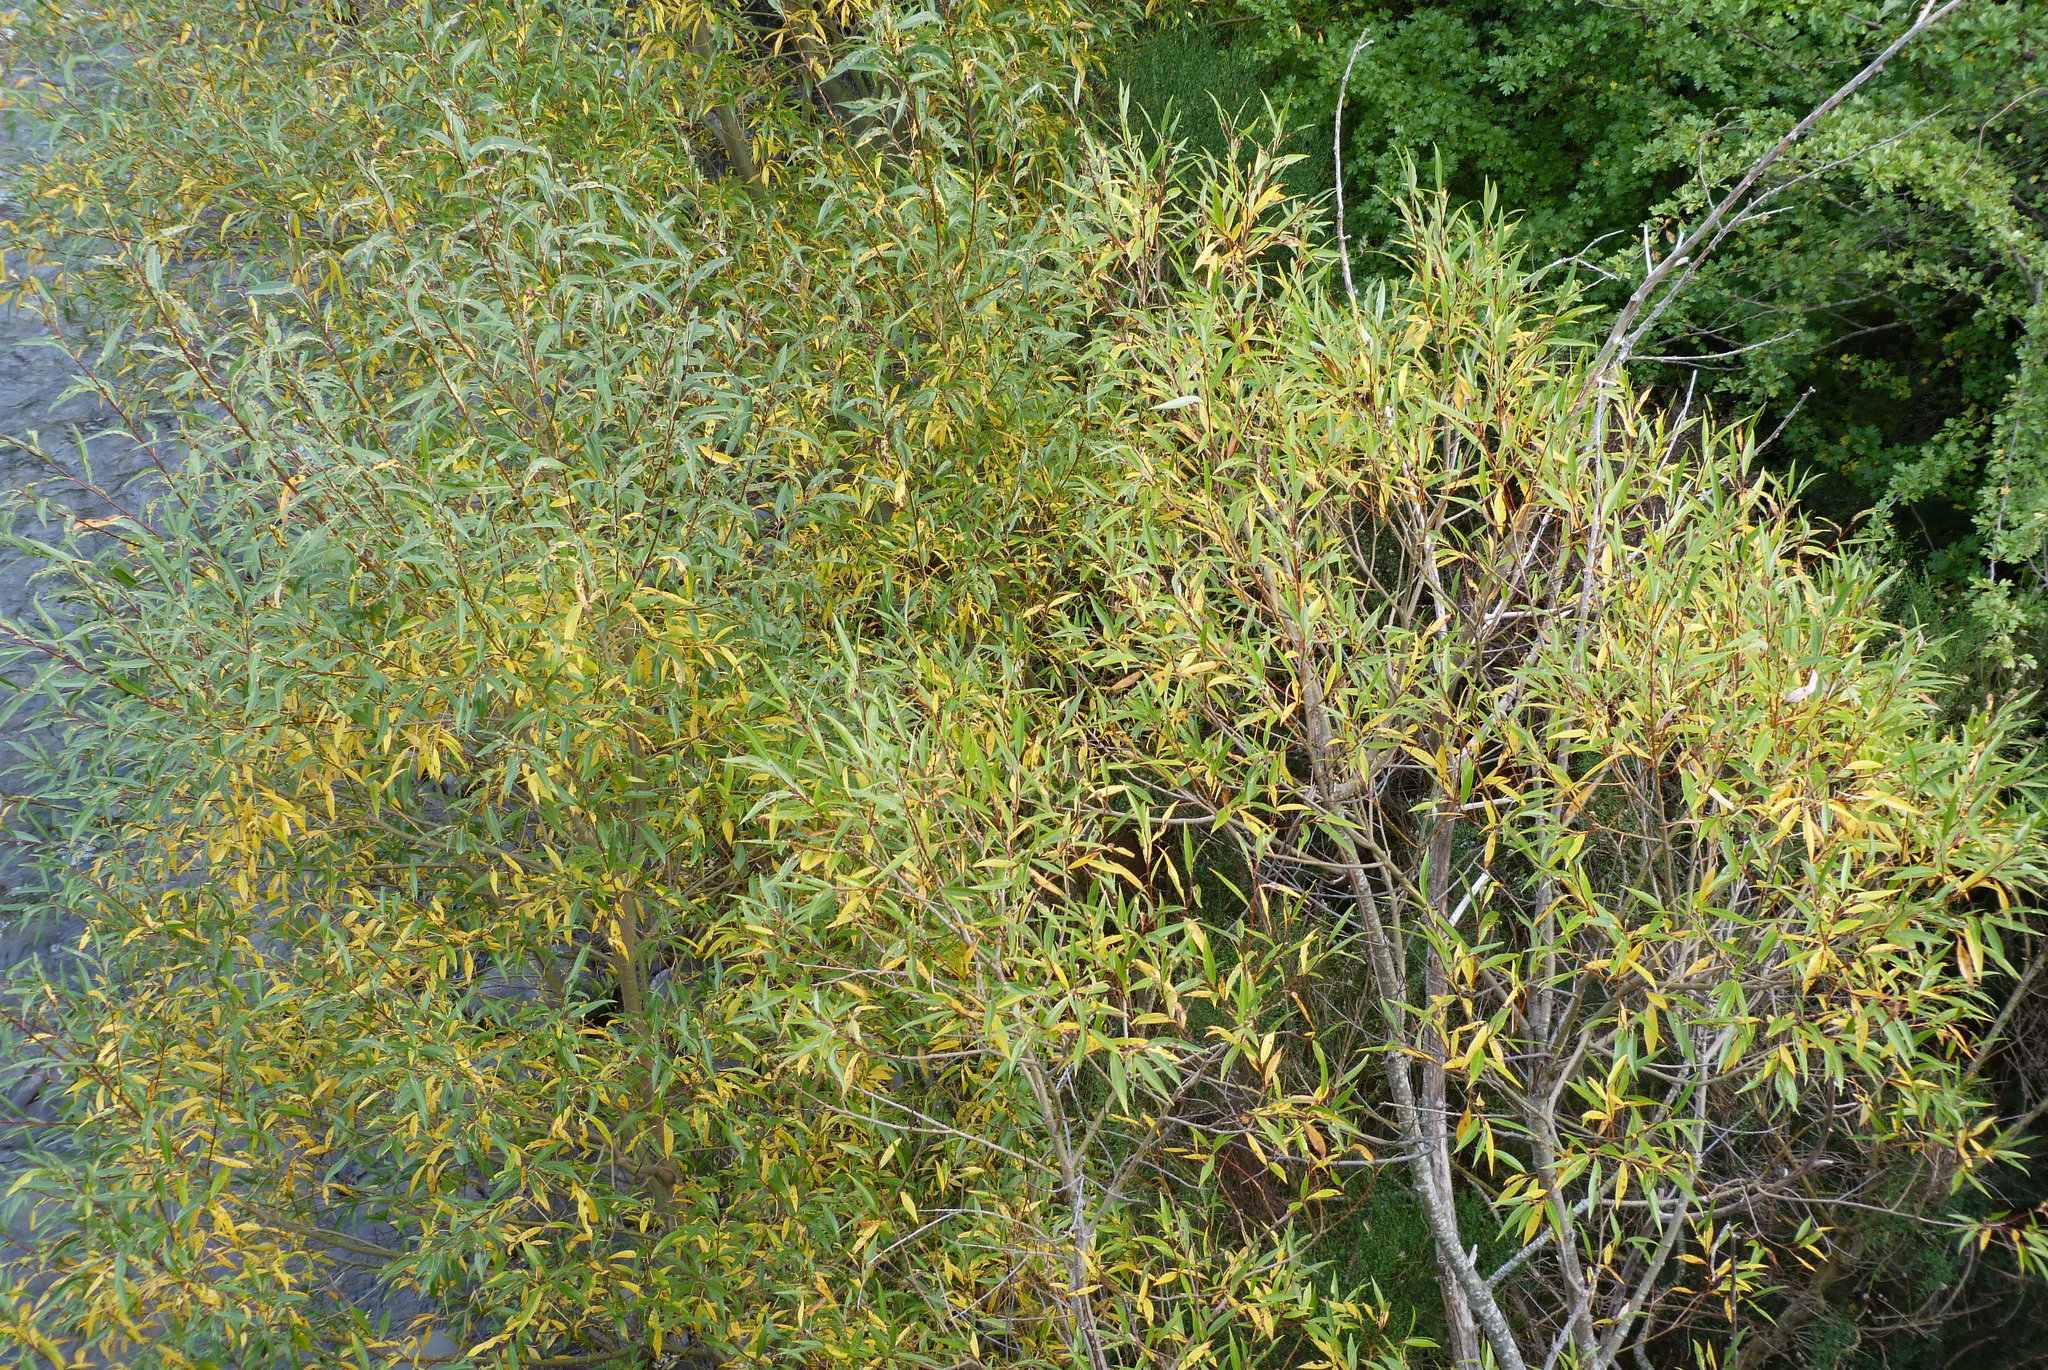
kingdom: Plantae
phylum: Tracheophyta
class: Magnoliopsida
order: Malpighiales
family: Salicaceae
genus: Salix
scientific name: Salix fragilis
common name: Crack willow
